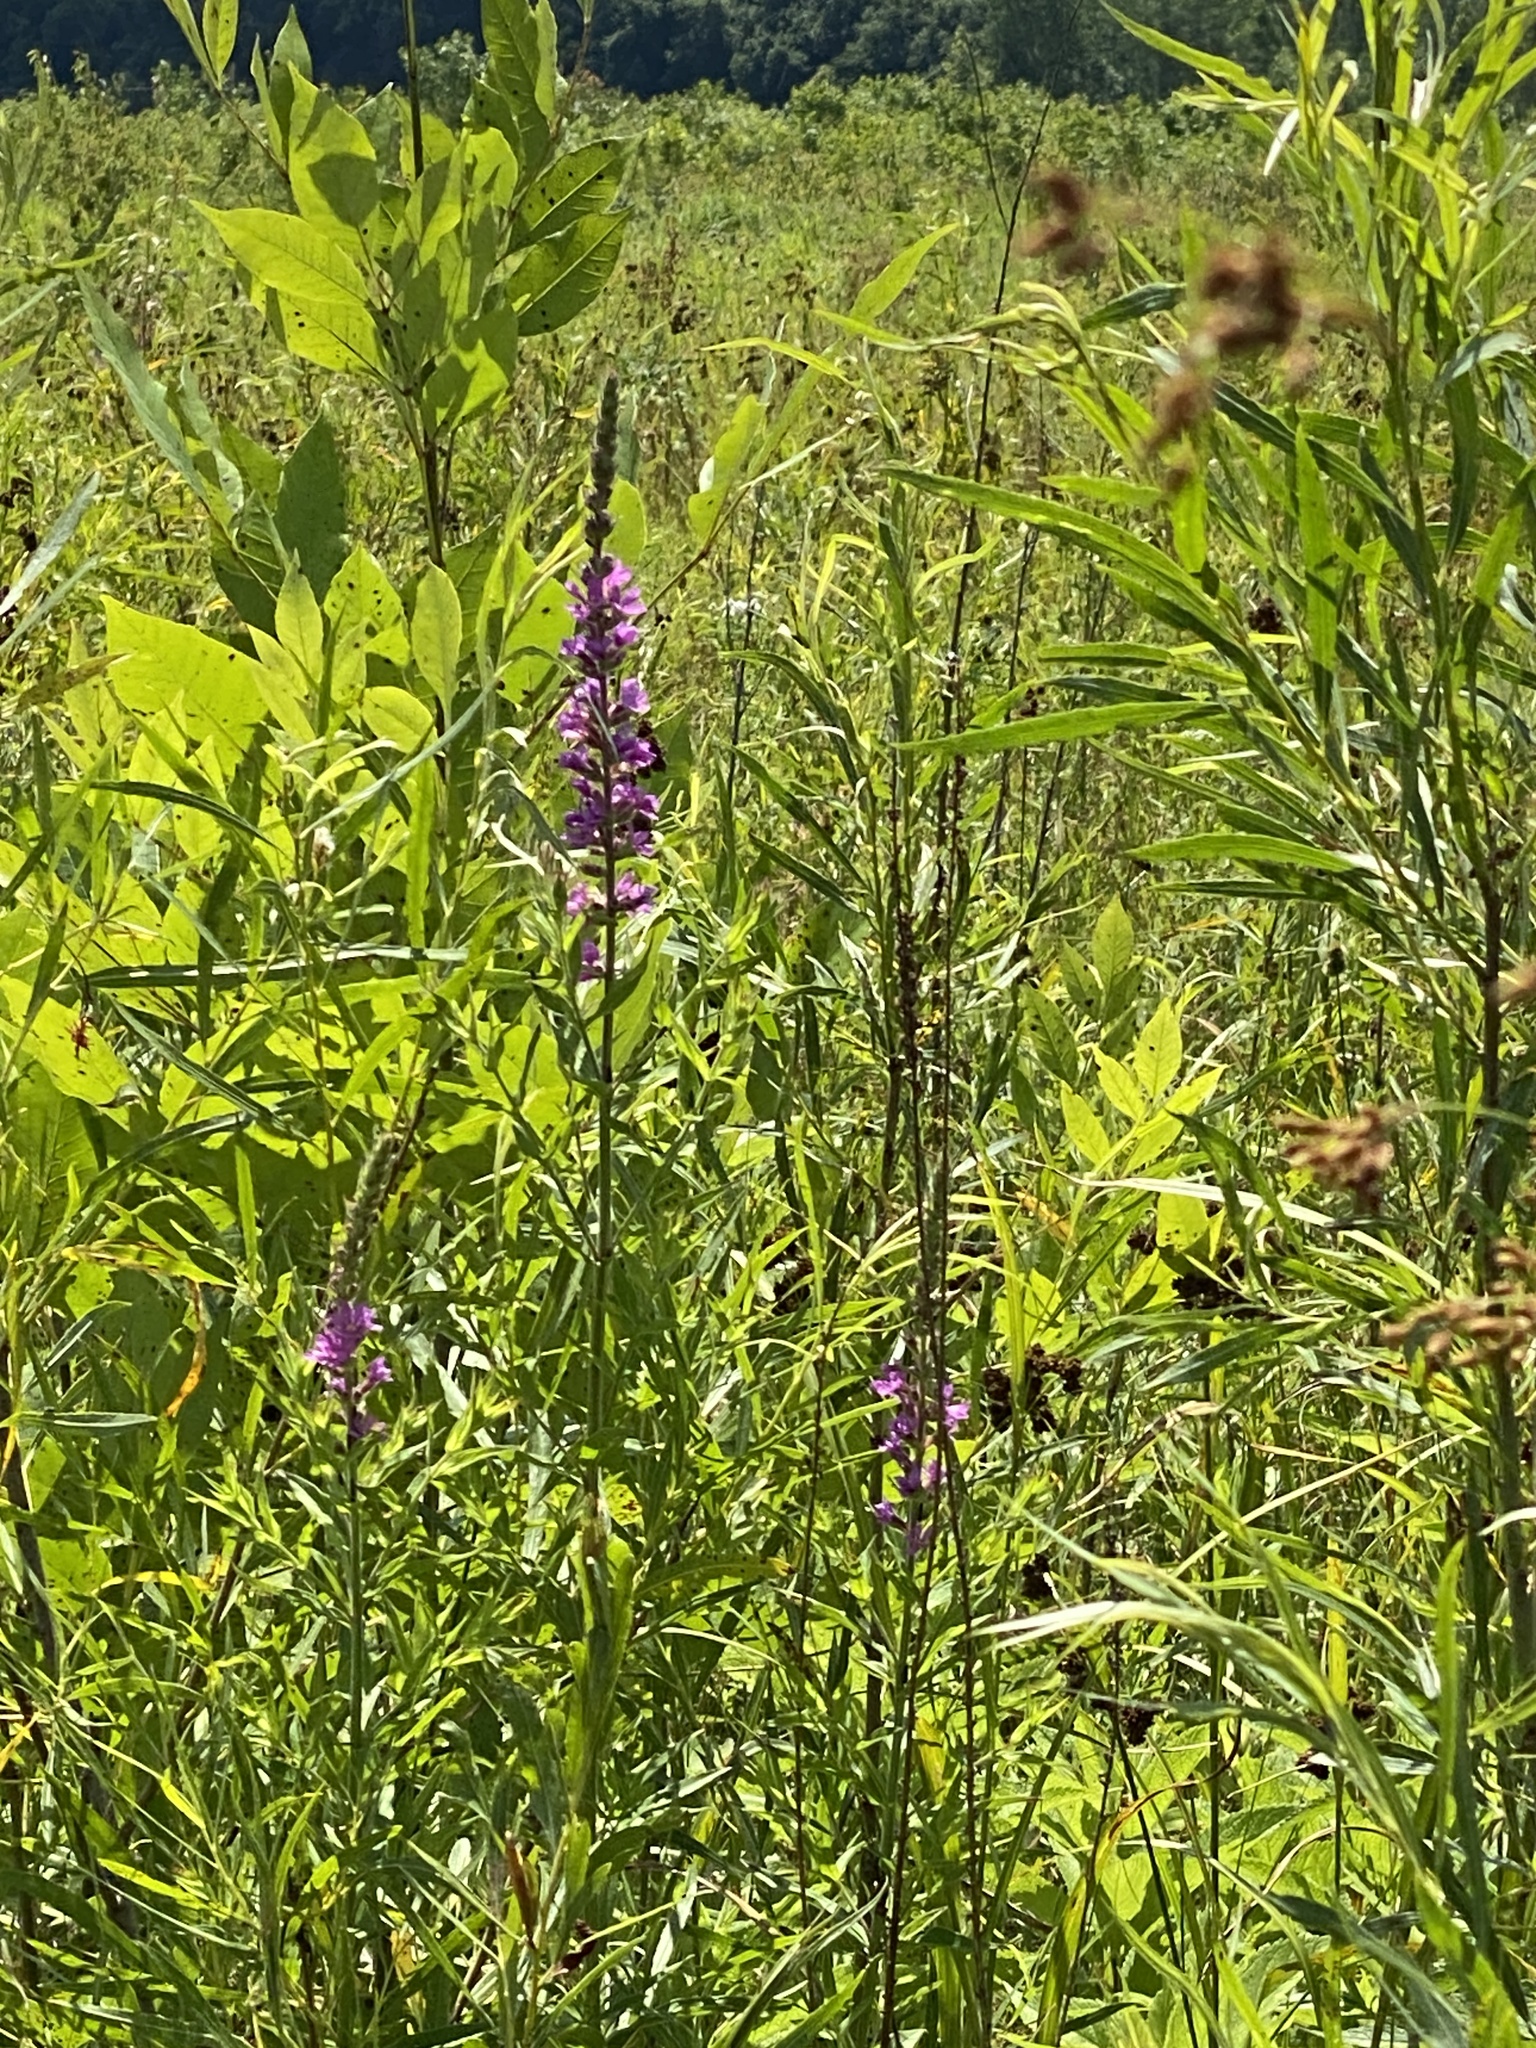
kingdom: Plantae
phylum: Tracheophyta
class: Magnoliopsida
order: Myrtales
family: Lythraceae
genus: Lythrum
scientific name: Lythrum salicaria
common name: Purple loosestrife
